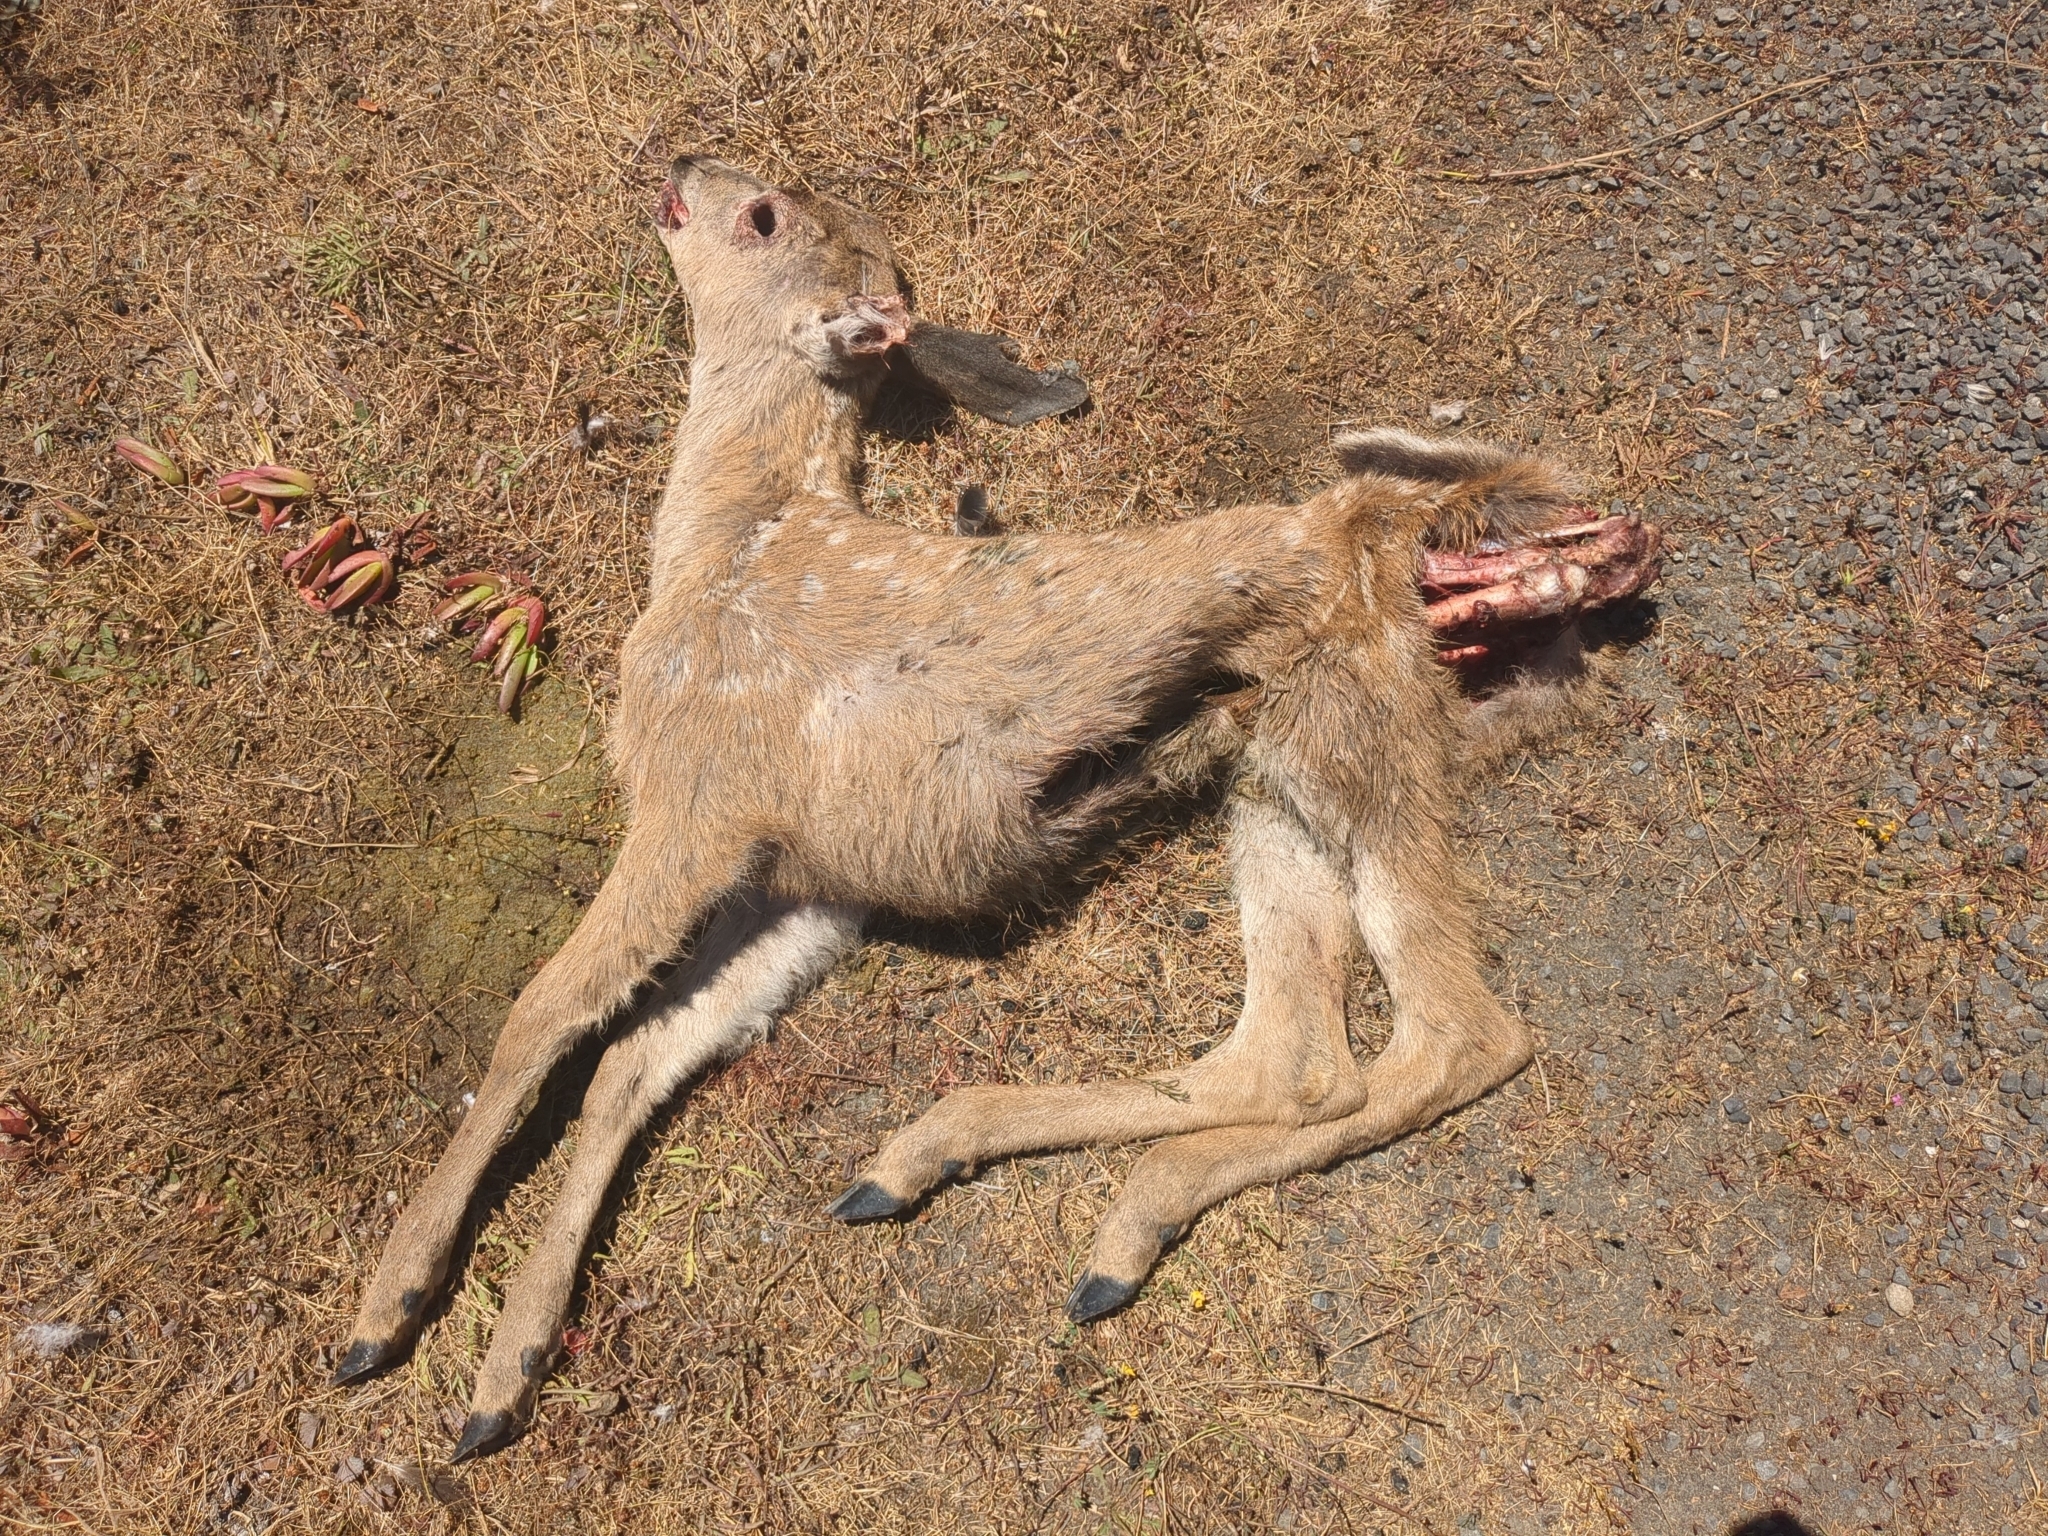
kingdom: Animalia
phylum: Chordata
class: Mammalia
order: Artiodactyla
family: Cervidae
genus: Odocoileus
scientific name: Odocoileus hemionus
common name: Mule deer
